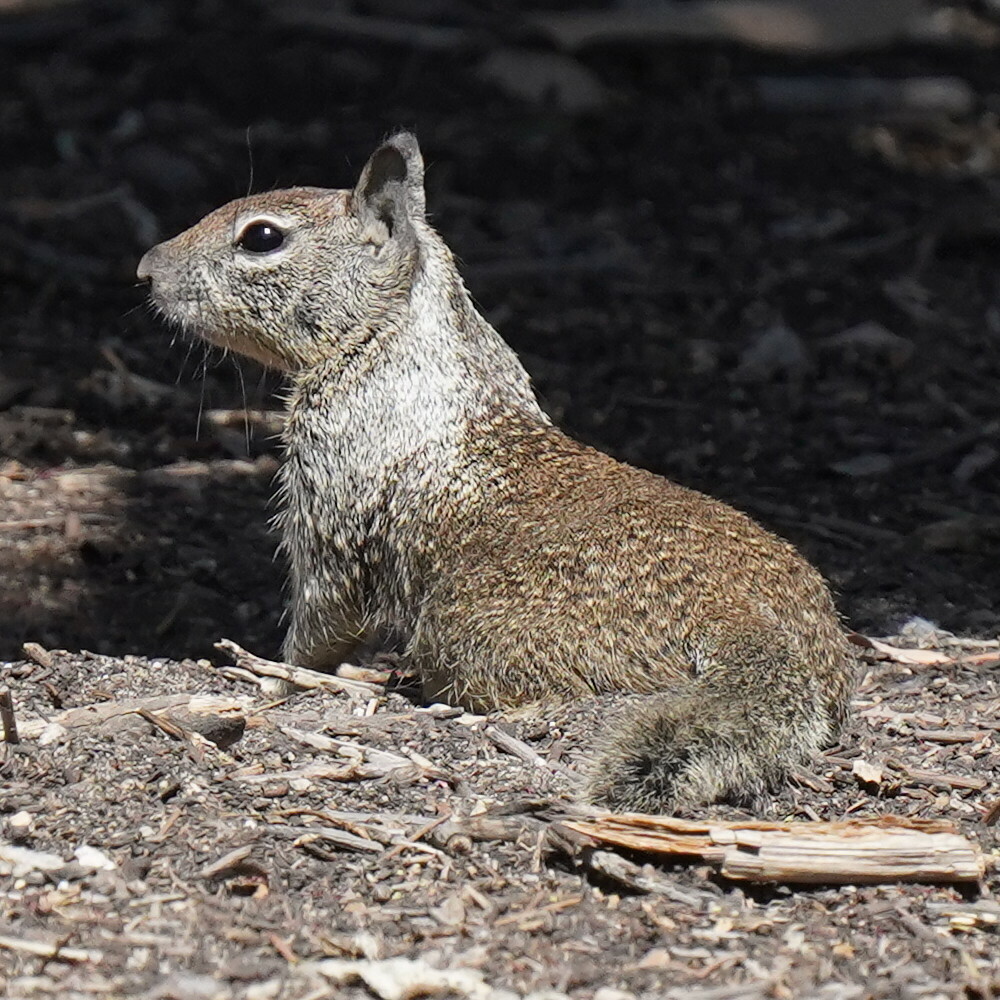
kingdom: Animalia
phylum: Chordata
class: Mammalia
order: Rodentia
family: Sciuridae
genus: Otospermophilus
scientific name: Otospermophilus beecheyi
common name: California ground squirrel
